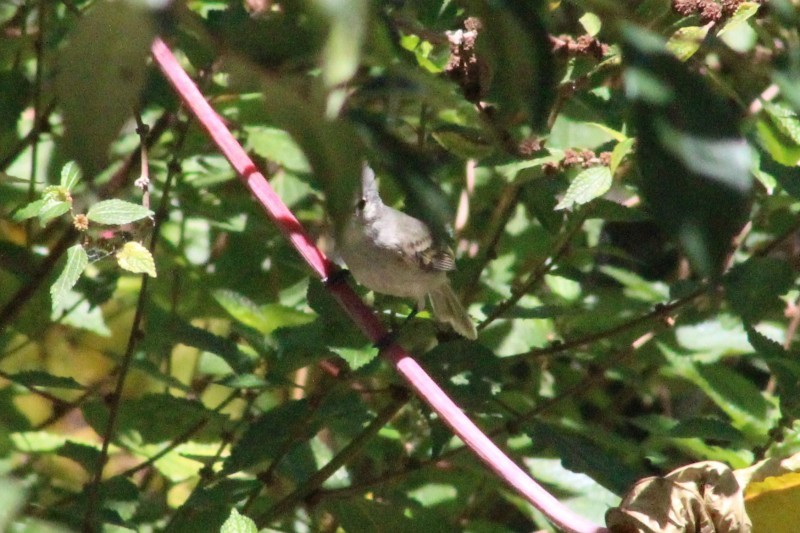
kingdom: Animalia
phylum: Chordata
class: Aves
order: Passeriformes
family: Tyrannidae
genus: Camptostoma
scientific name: Camptostoma obsoletum
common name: Southern beardless-tyrannulet
